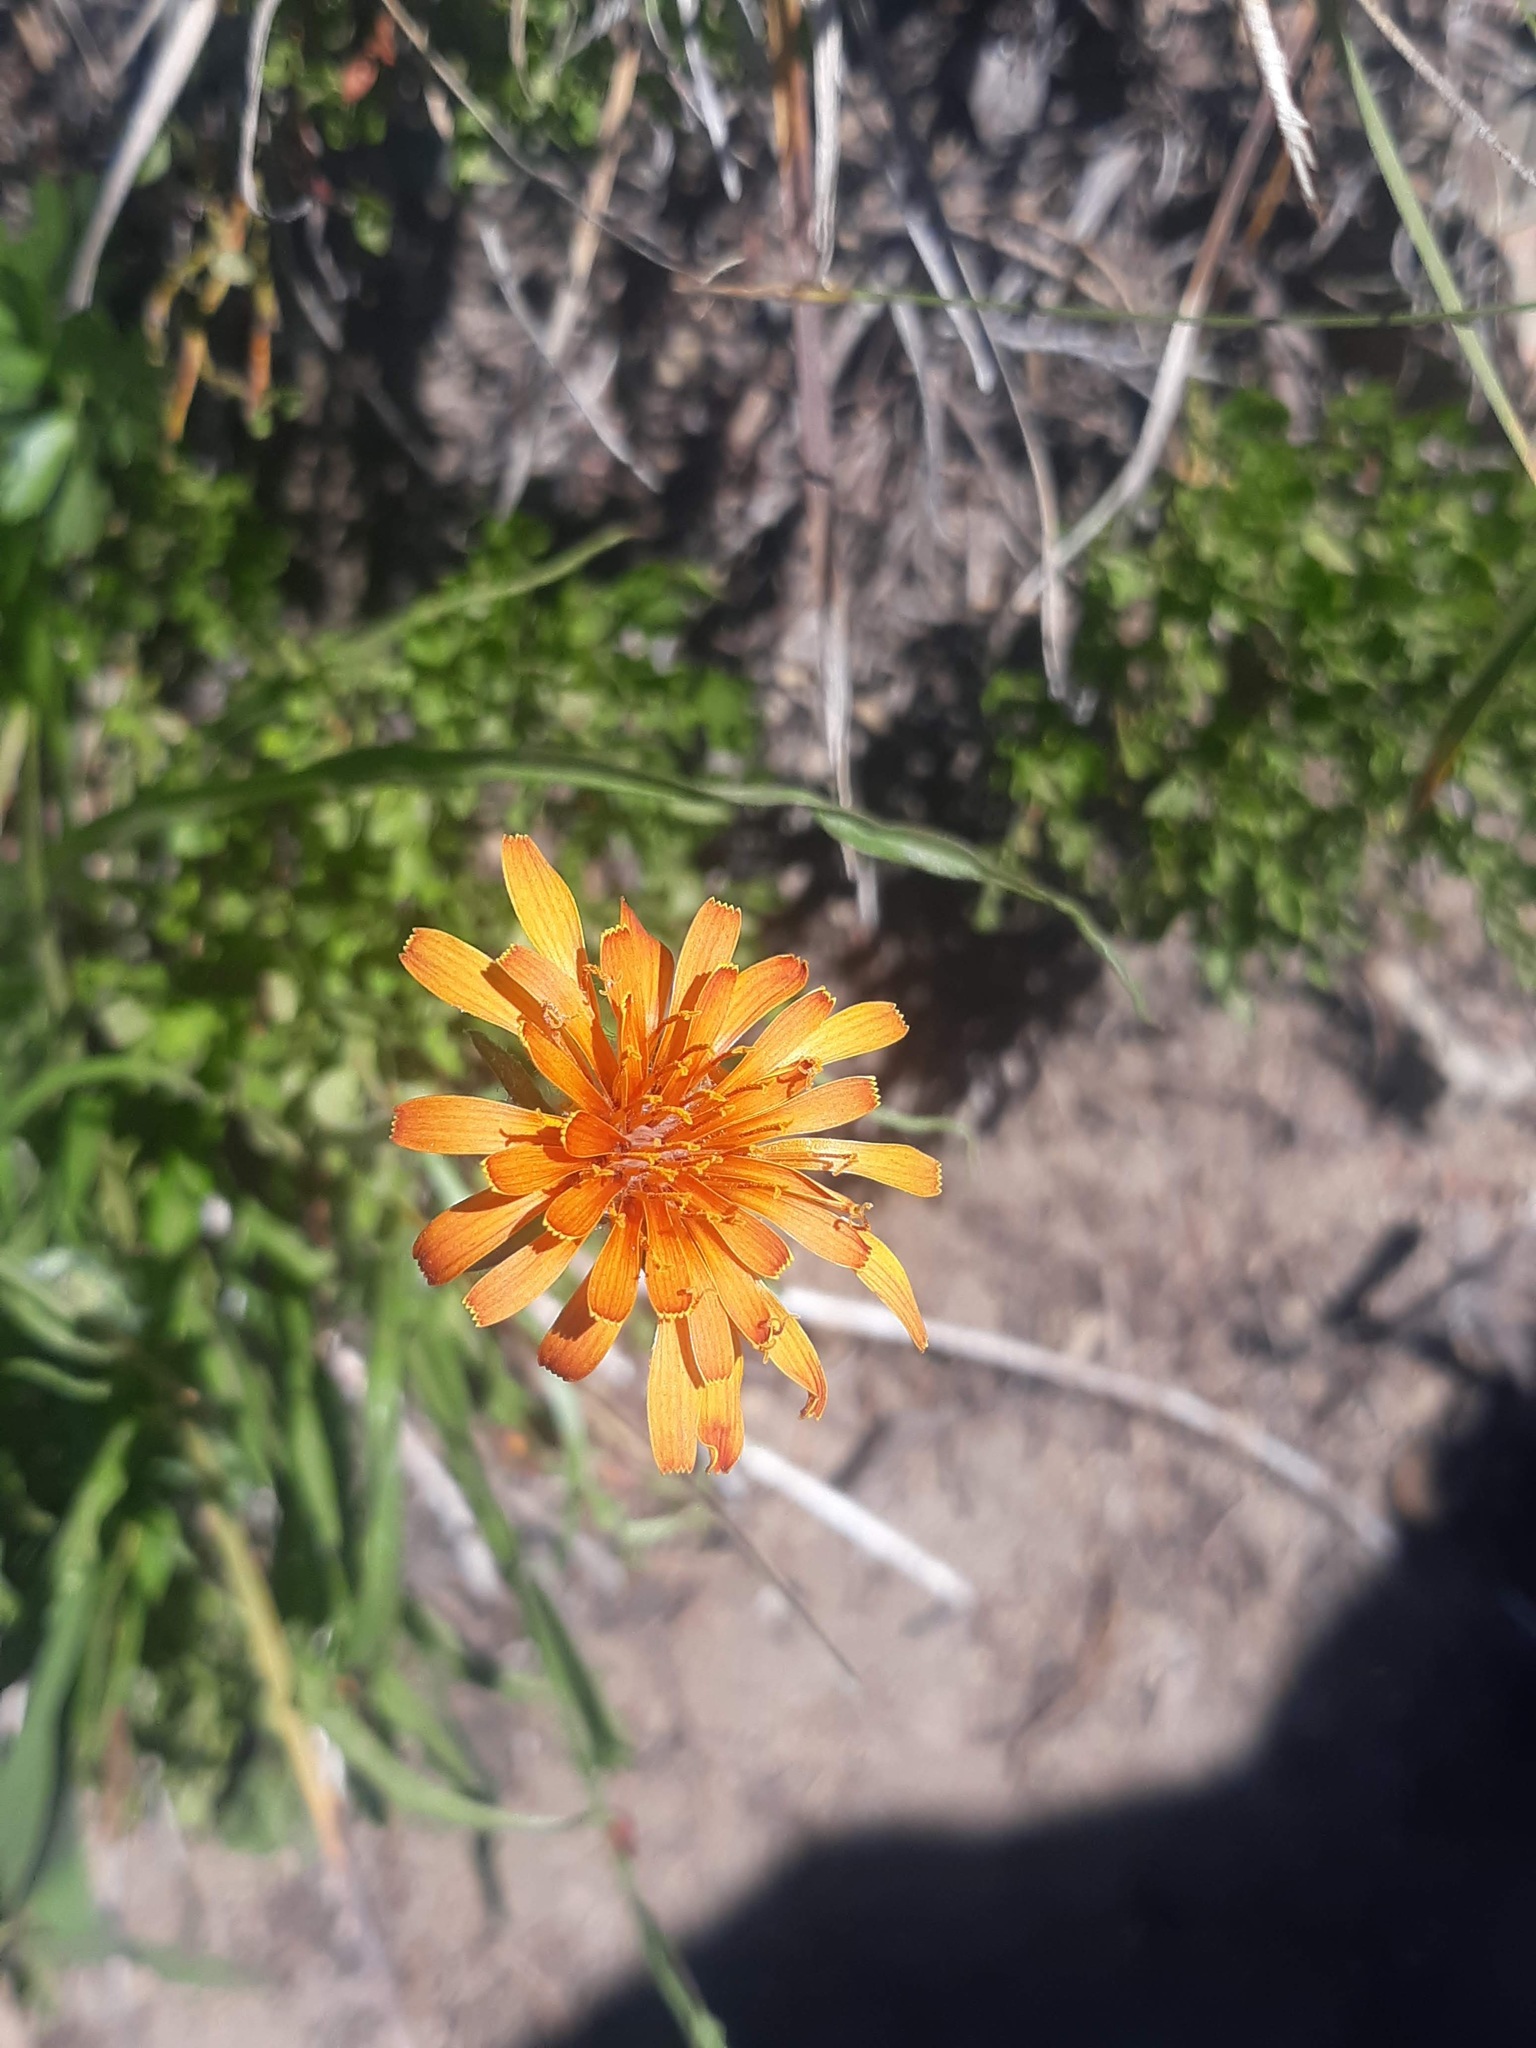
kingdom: Plantae
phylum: Tracheophyta
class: Magnoliopsida
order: Asterales
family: Asteraceae
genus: Agoseris
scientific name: Agoseris aurantiaca
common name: Mountain agoseris
